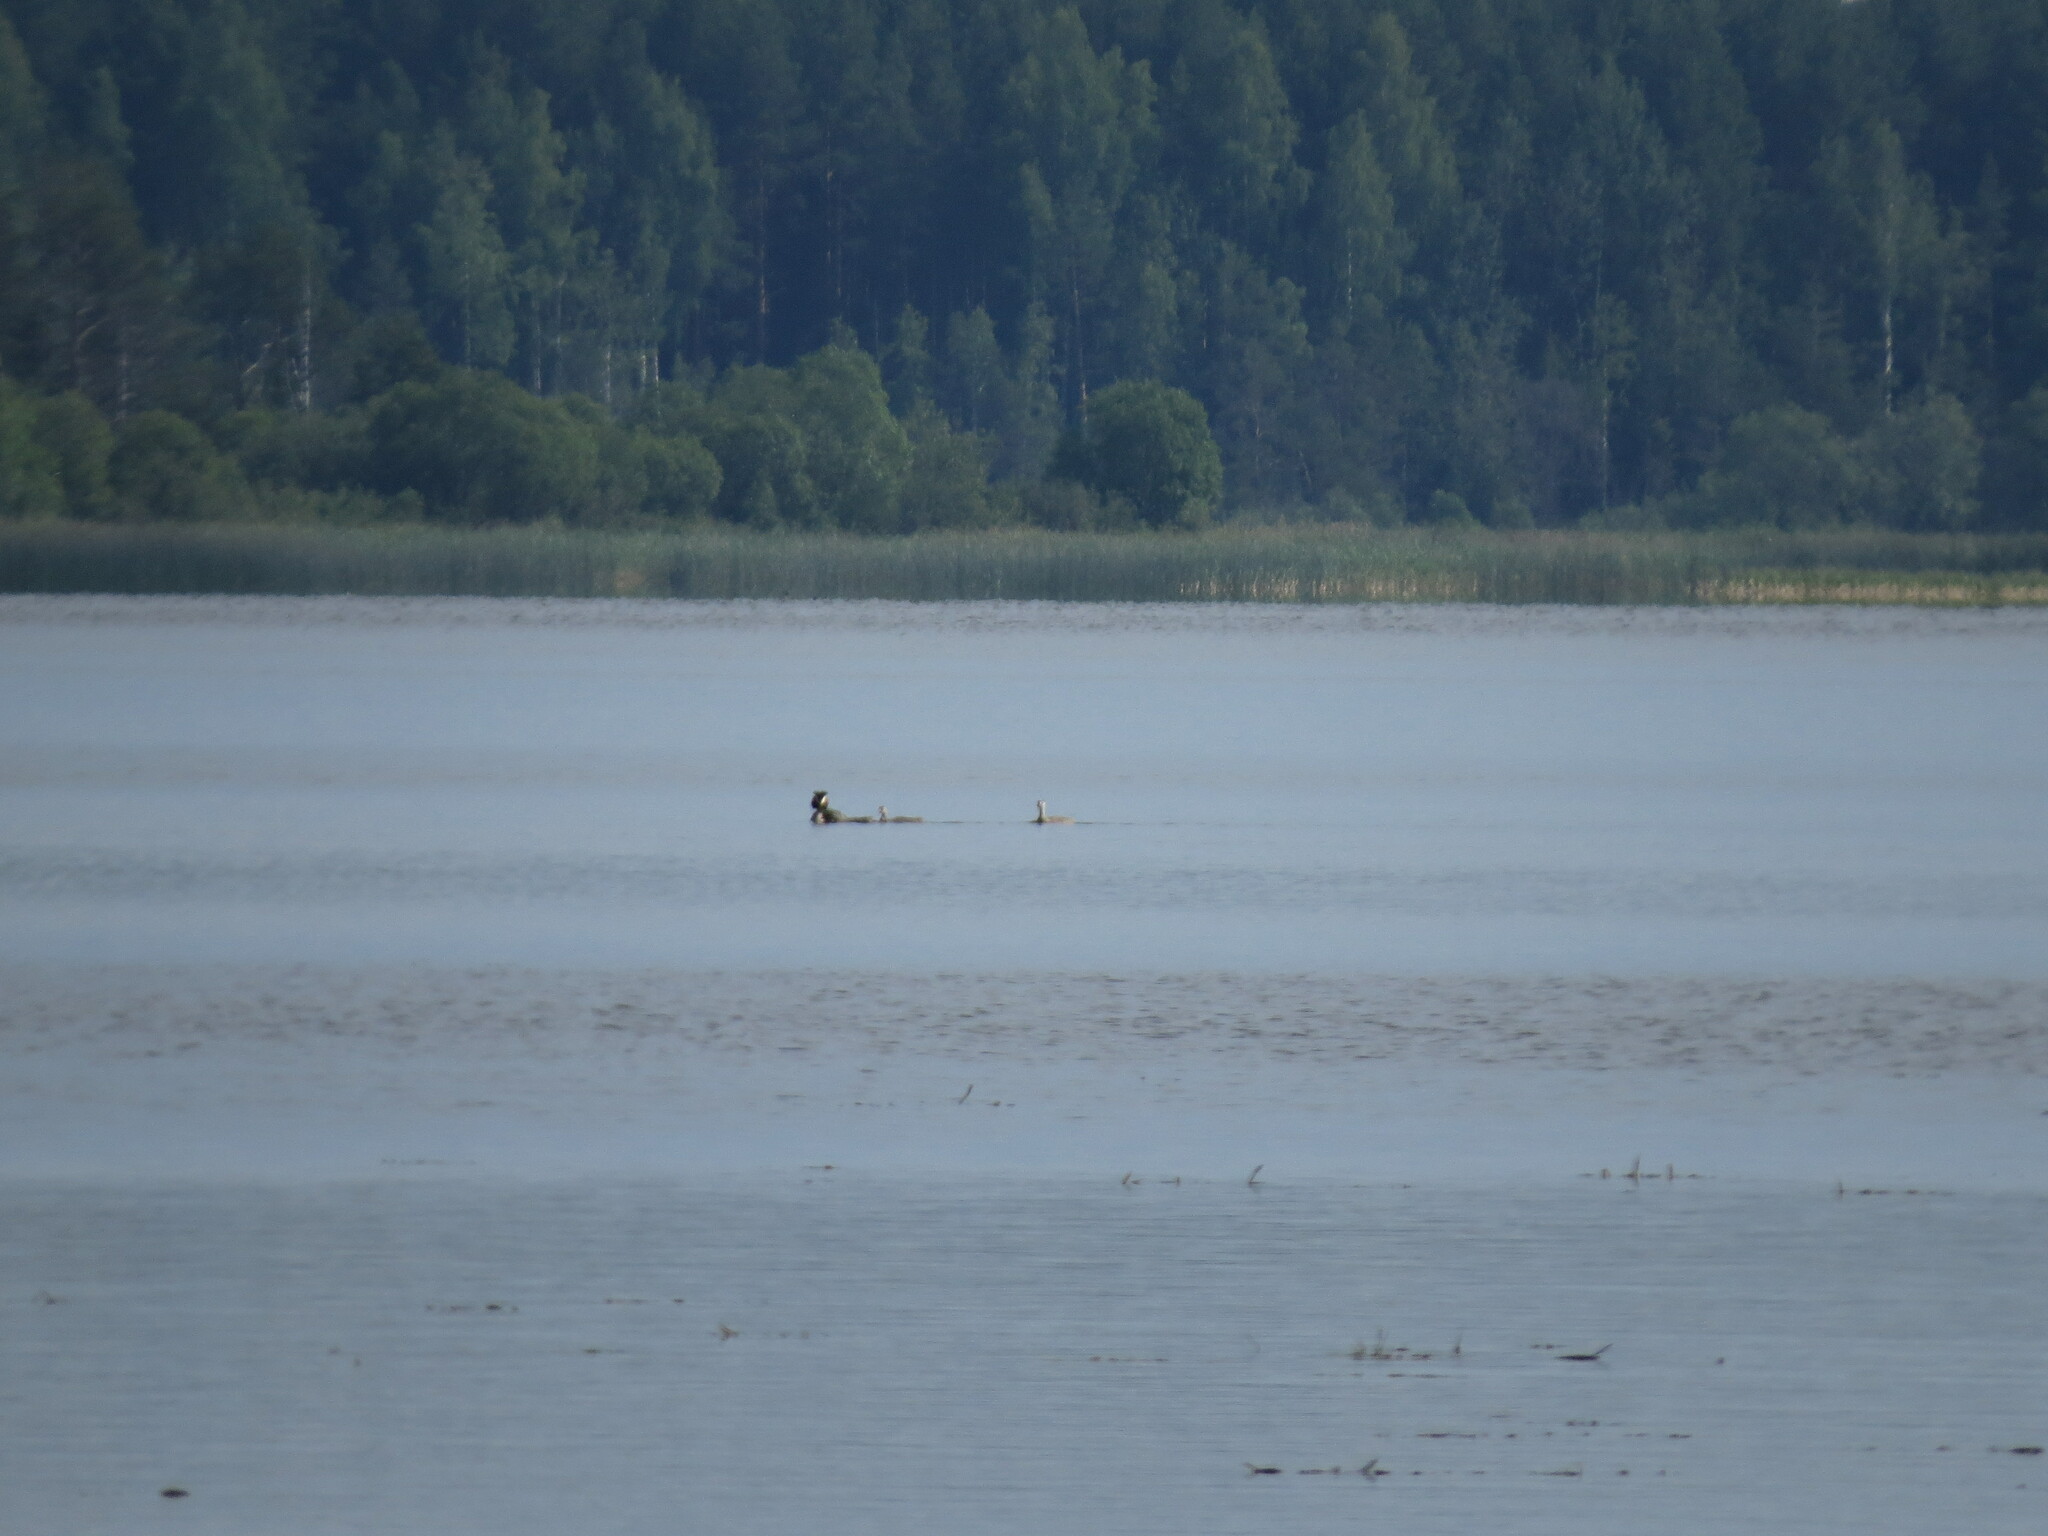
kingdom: Animalia
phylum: Chordata
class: Aves
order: Podicipediformes
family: Podicipedidae
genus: Podiceps
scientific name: Podiceps cristatus
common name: Great crested grebe
